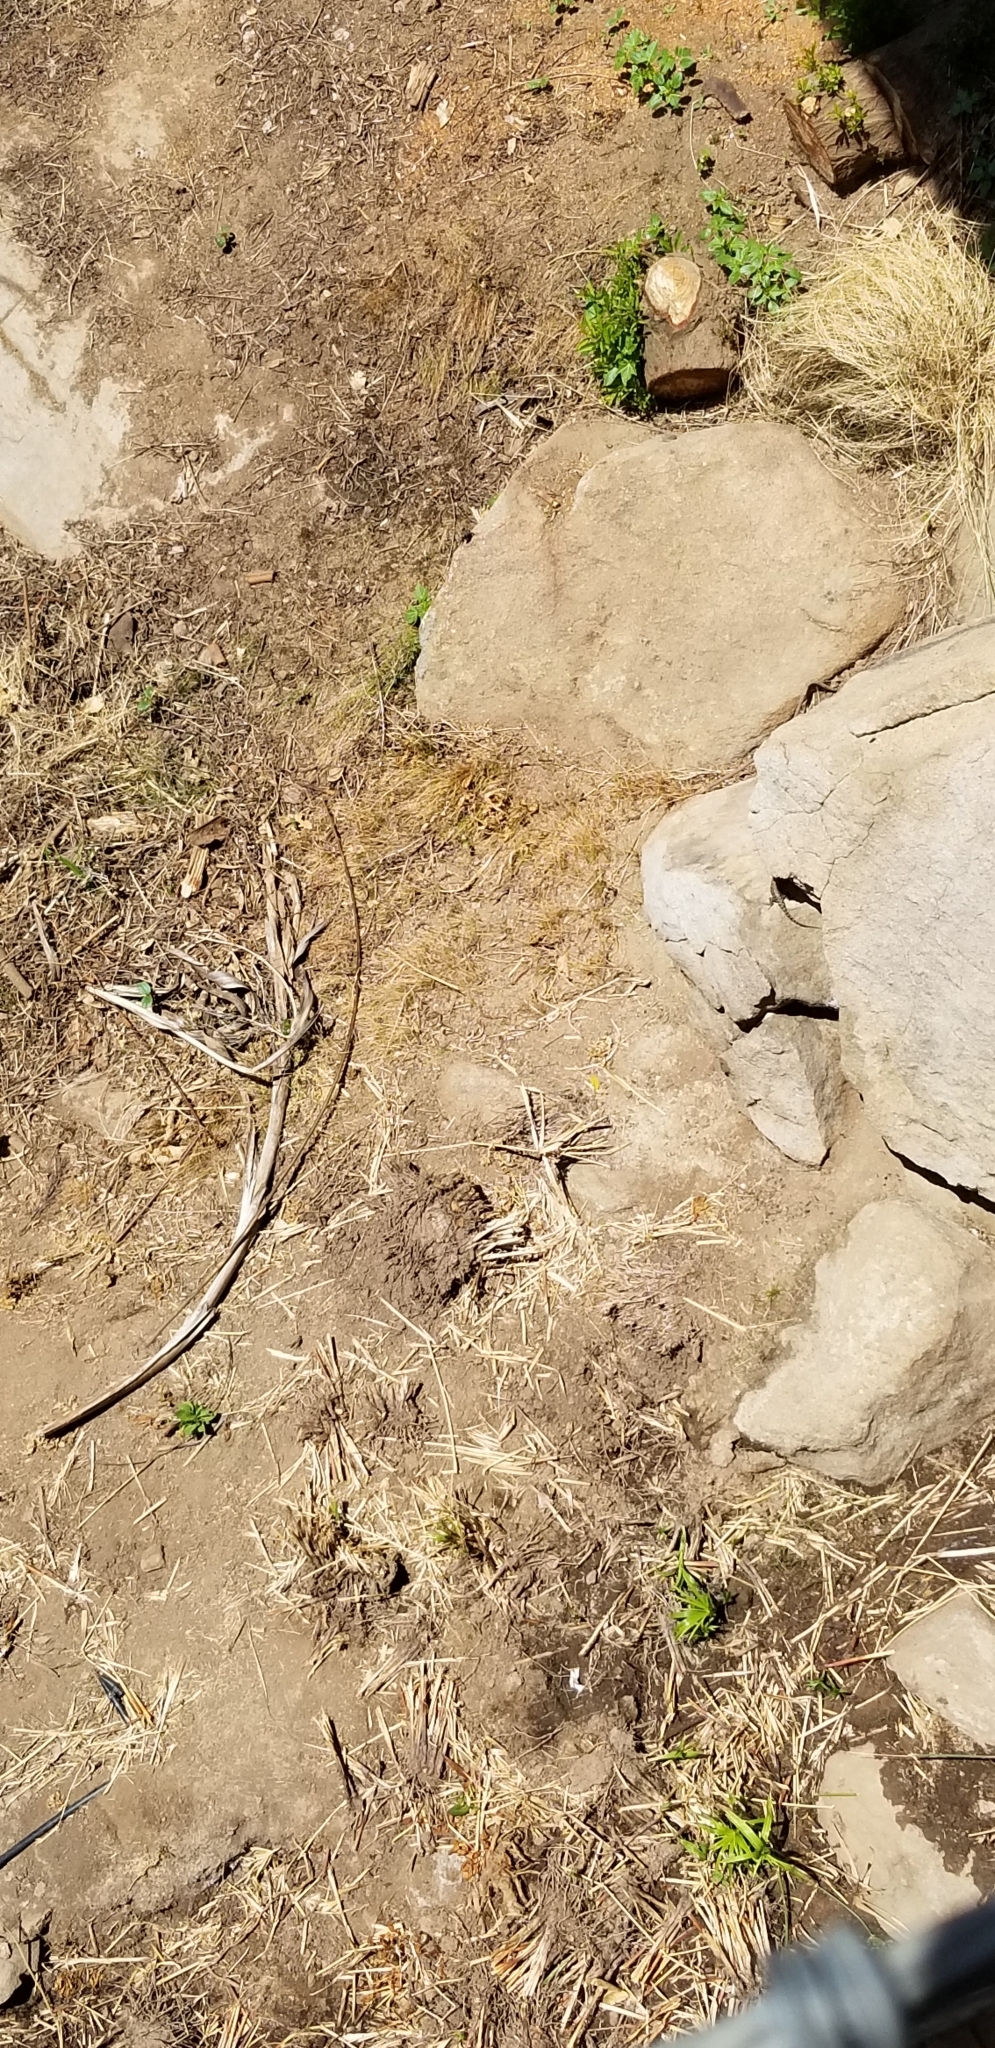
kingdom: Animalia
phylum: Chordata
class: Squamata
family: Phrynosomatidae
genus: Sceloporus
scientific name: Sceloporus orcutti
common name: Granite spiny lizard
